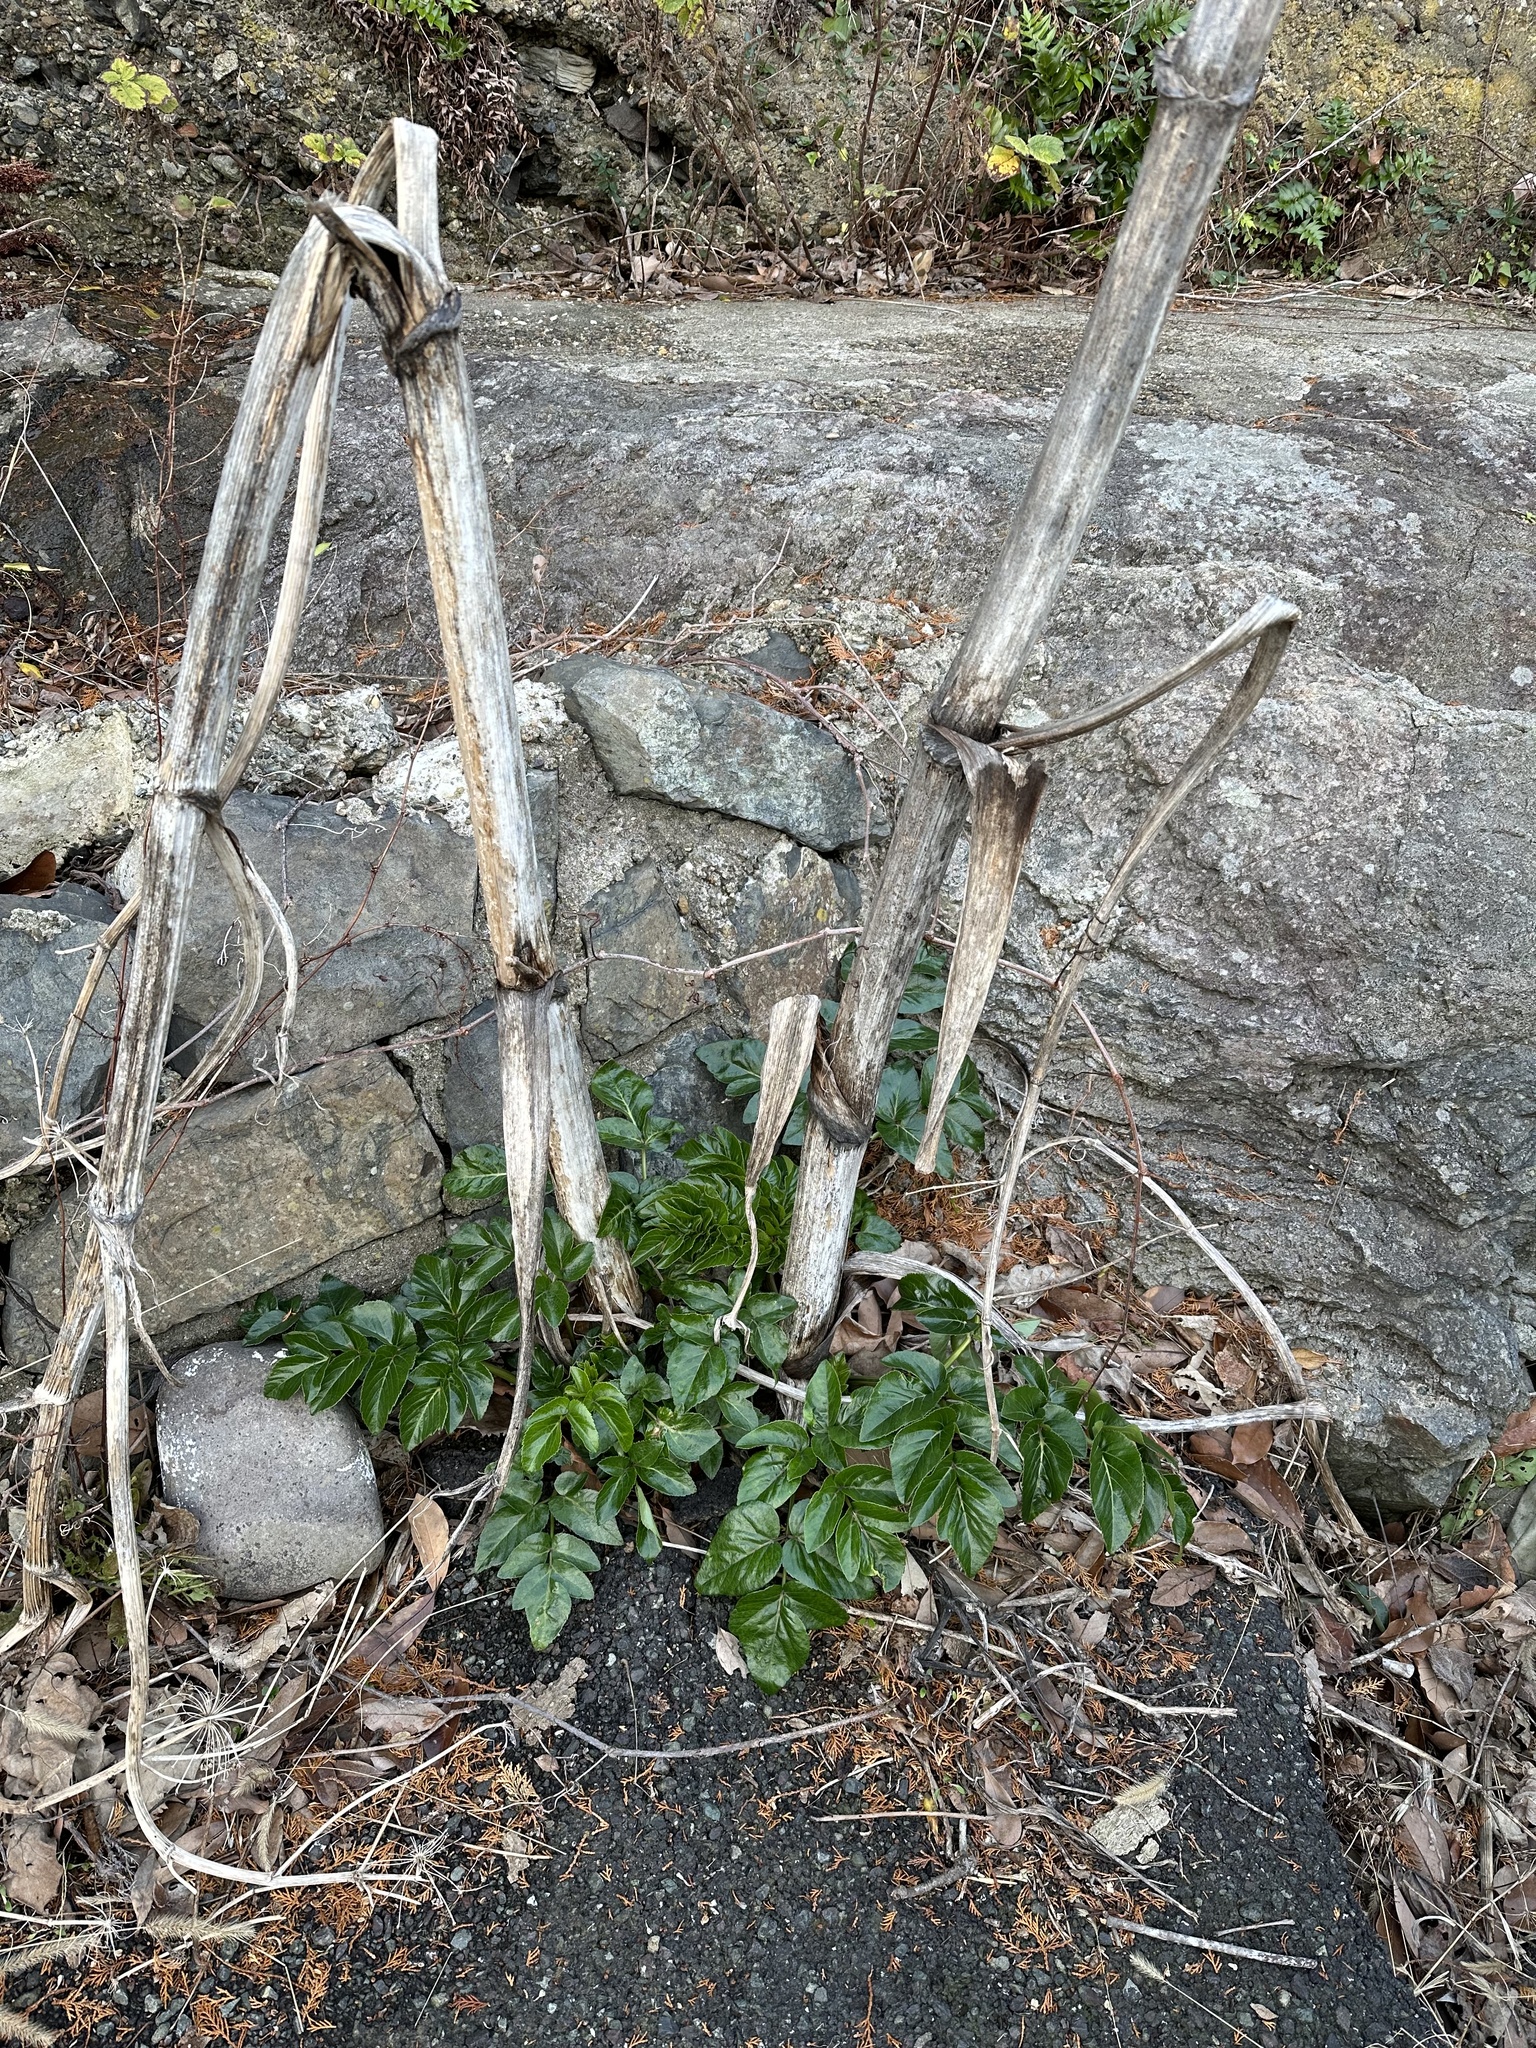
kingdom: Plantae
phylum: Tracheophyta
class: Magnoliopsida
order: Apiales
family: Apiaceae
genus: Angelica
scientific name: Angelica japonica
